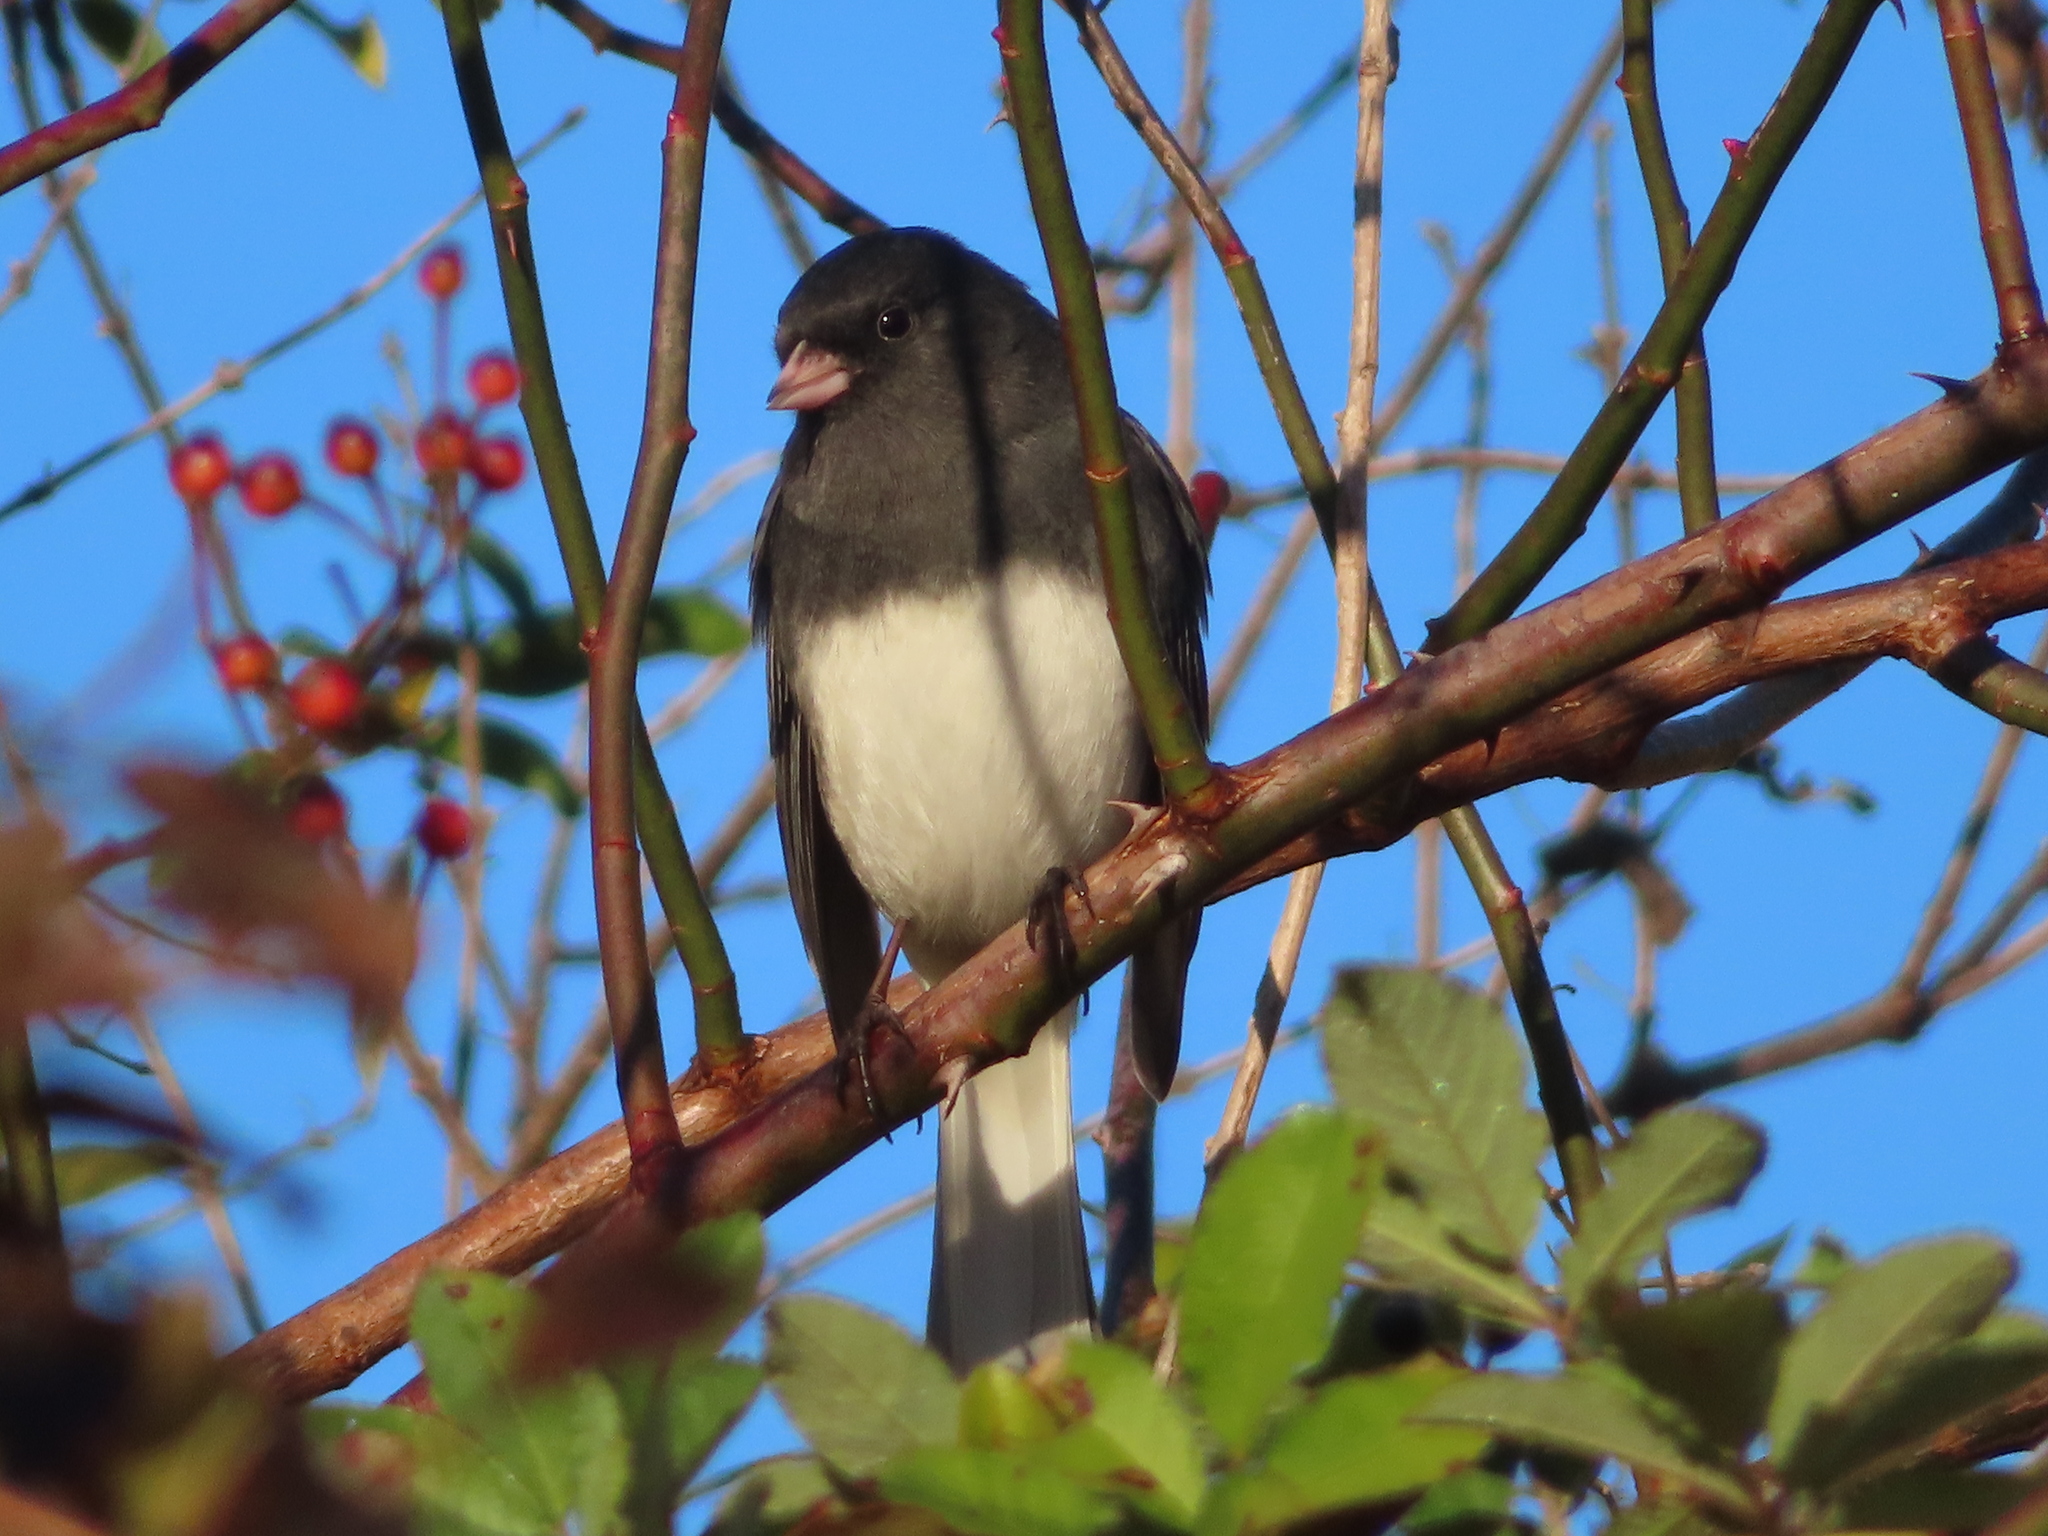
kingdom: Animalia
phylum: Chordata
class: Aves
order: Passeriformes
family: Passerellidae
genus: Junco
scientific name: Junco hyemalis
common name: Dark-eyed junco
